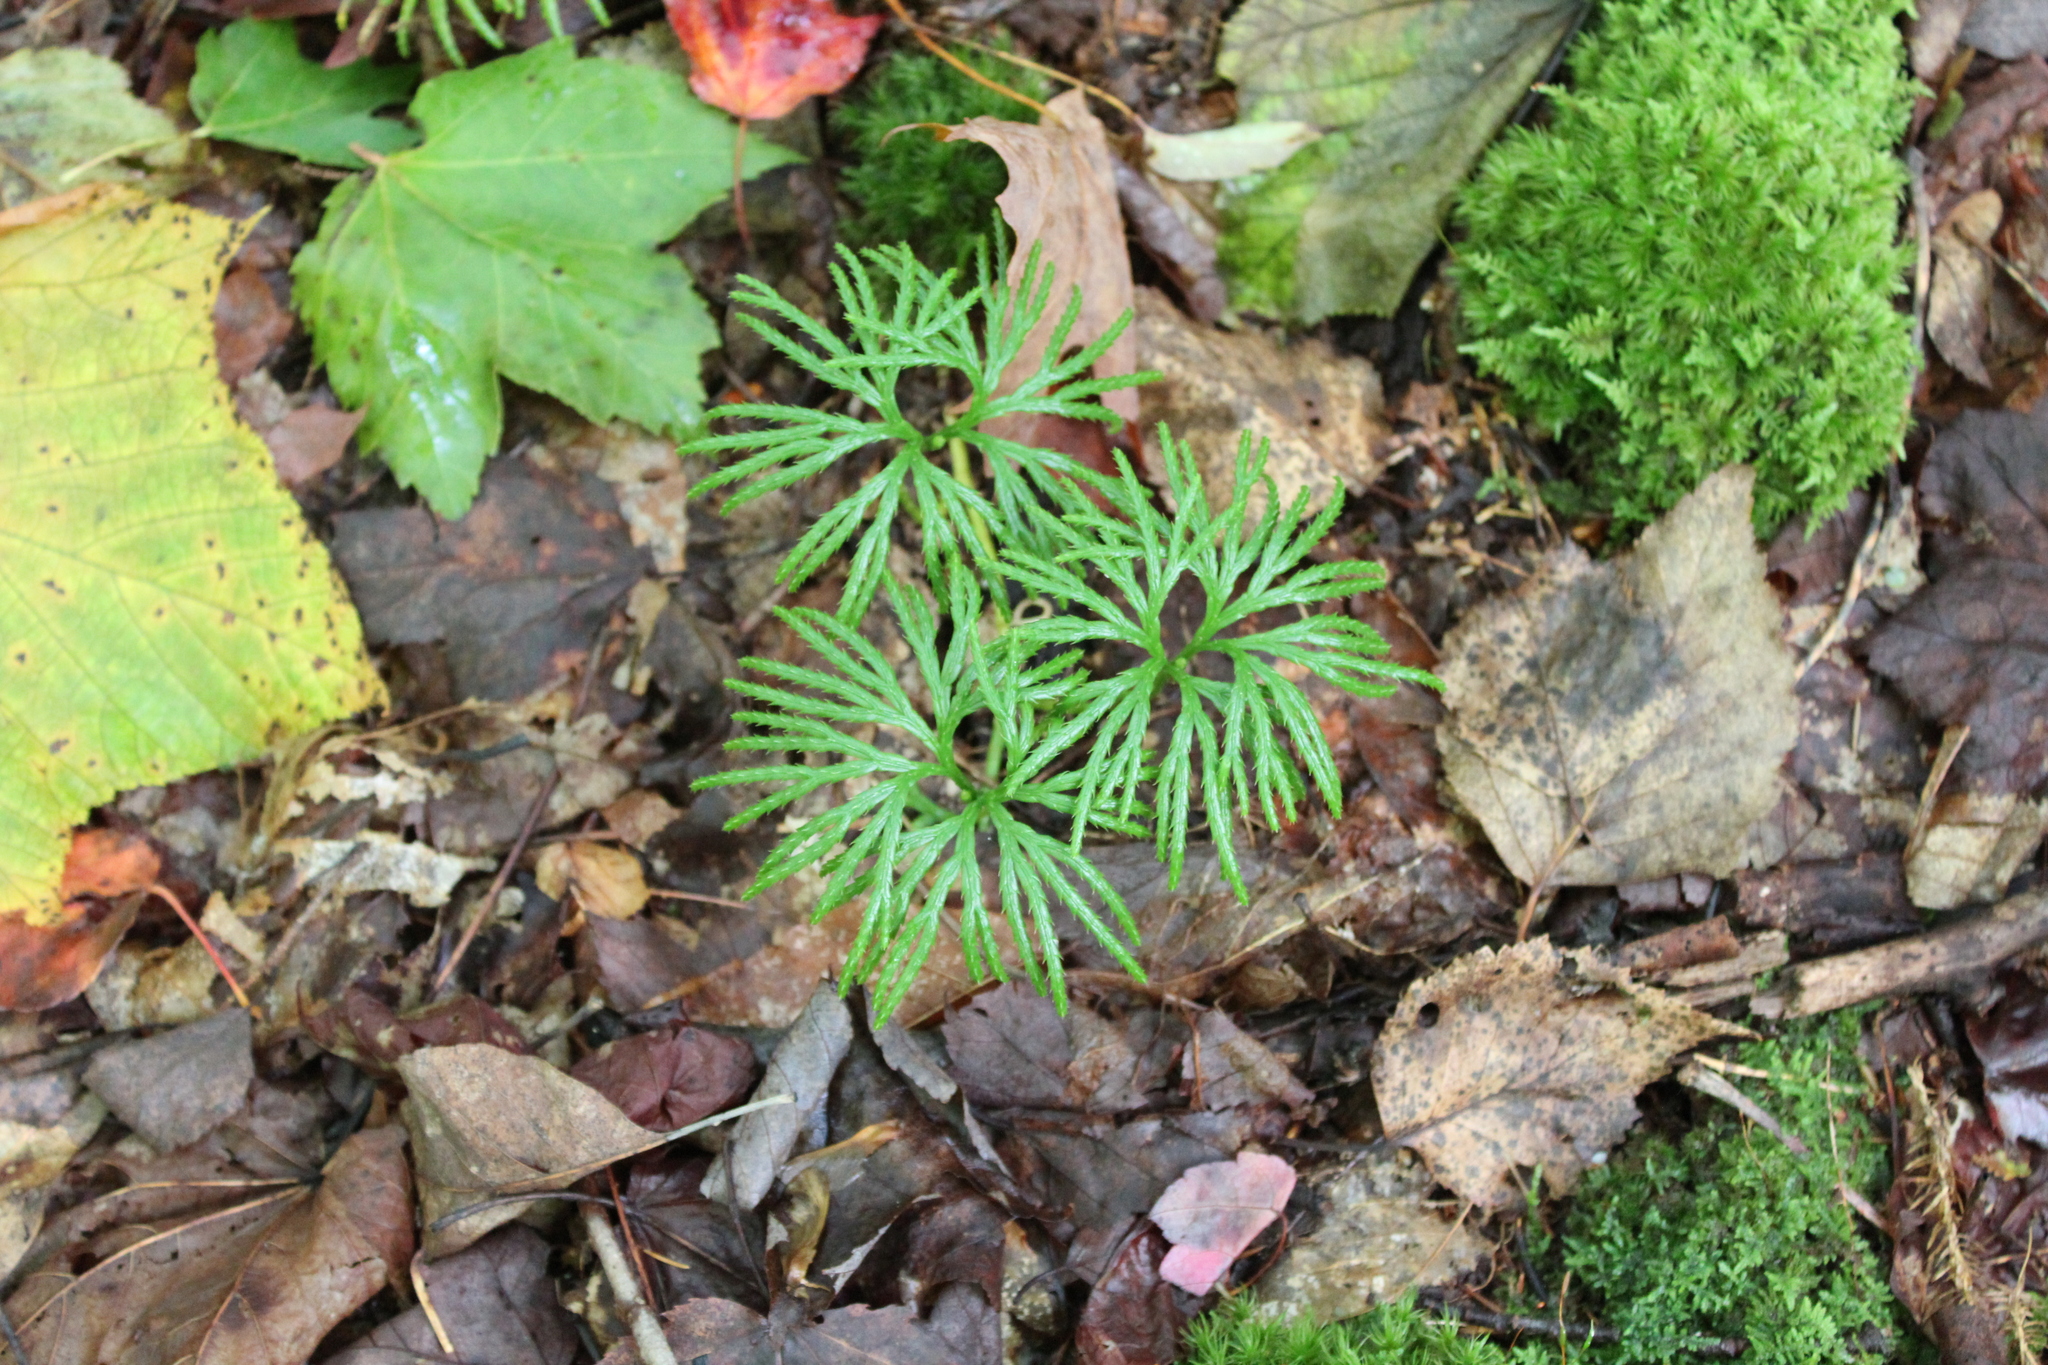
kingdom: Plantae
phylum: Tracheophyta
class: Lycopodiopsida
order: Lycopodiales
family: Lycopodiaceae
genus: Diphasiastrum
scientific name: Diphasiastrum digitatum
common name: Southern running-pine
